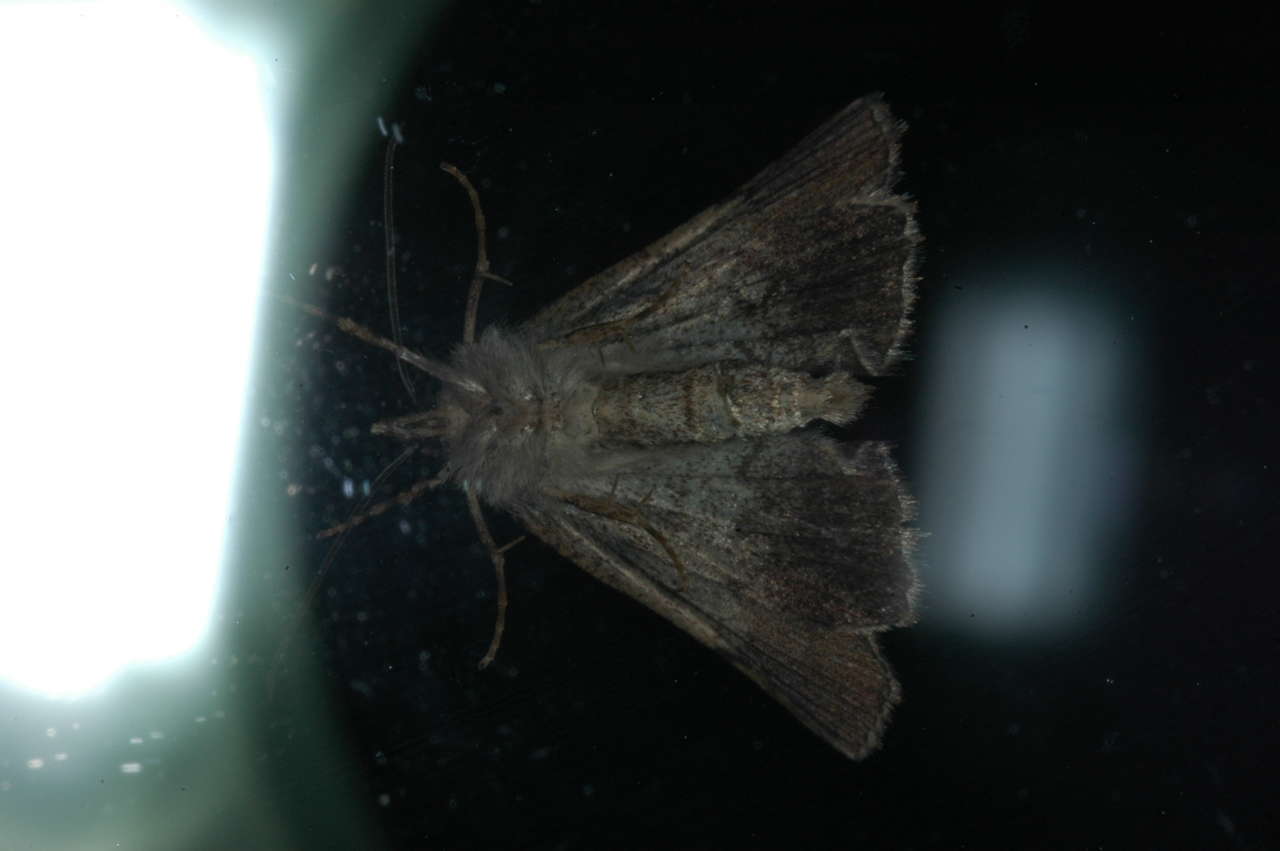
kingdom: Animalia
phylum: Arthropoda
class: Insecta
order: Lepidoptera
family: Geometridae
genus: Smyriodes
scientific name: Smyriodes
